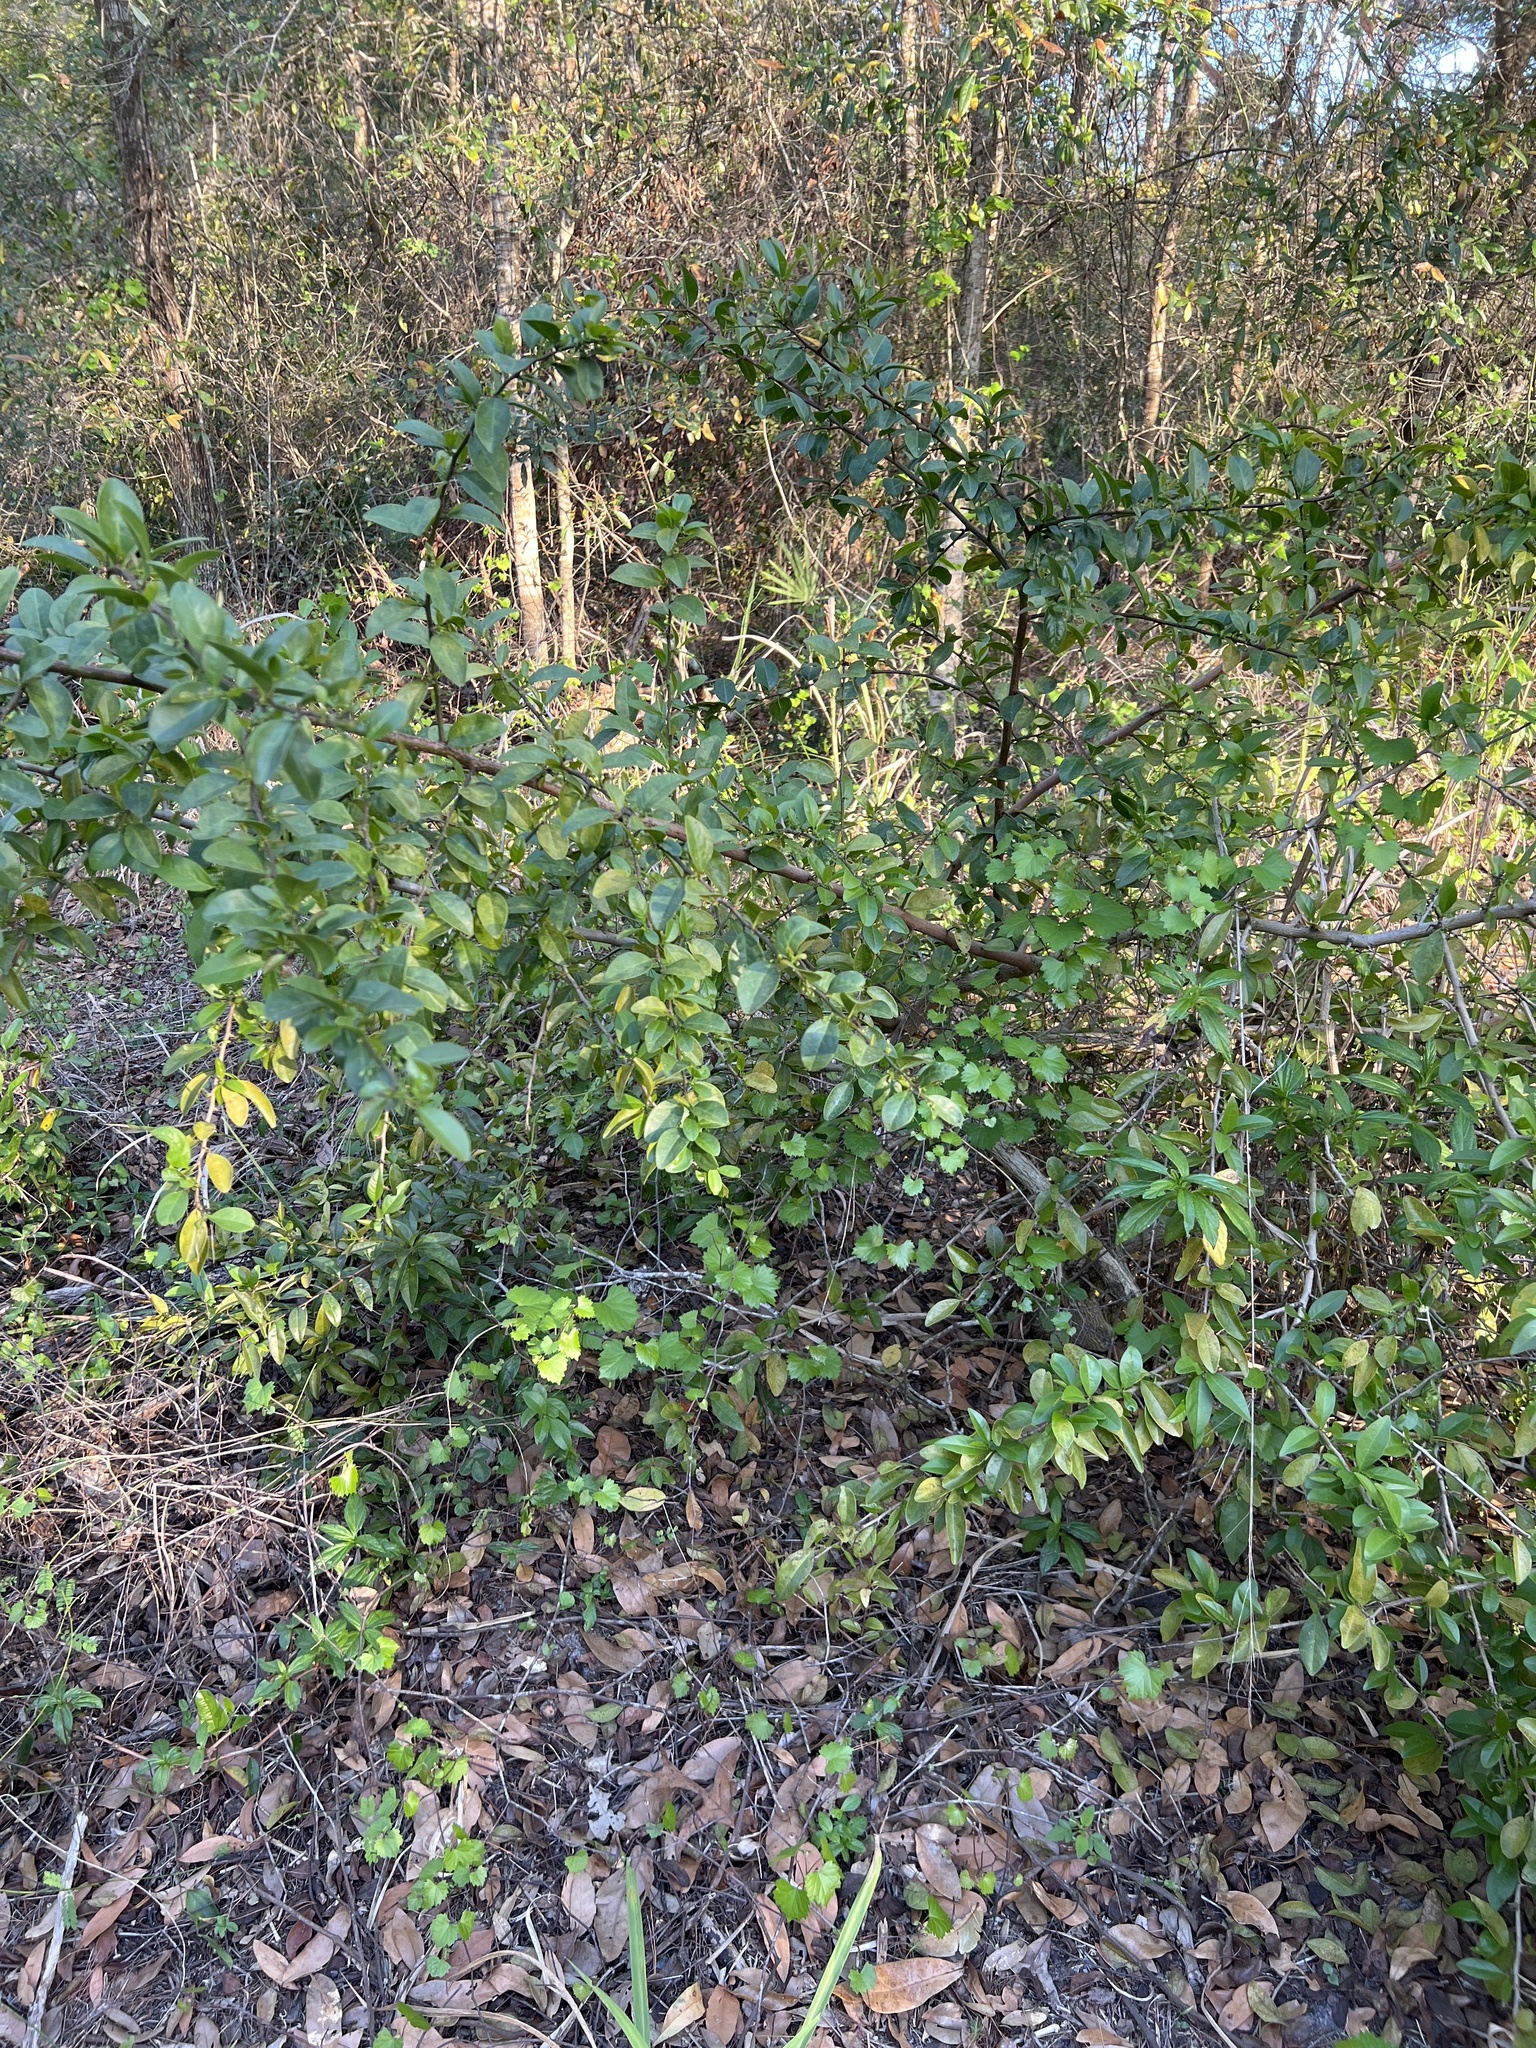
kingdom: Plantae
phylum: Tracheophyta
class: Magnoliopsida
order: Santalales
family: Ximeniaceae
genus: Ximenia
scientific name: Ximenia americana
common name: Tallowwood
